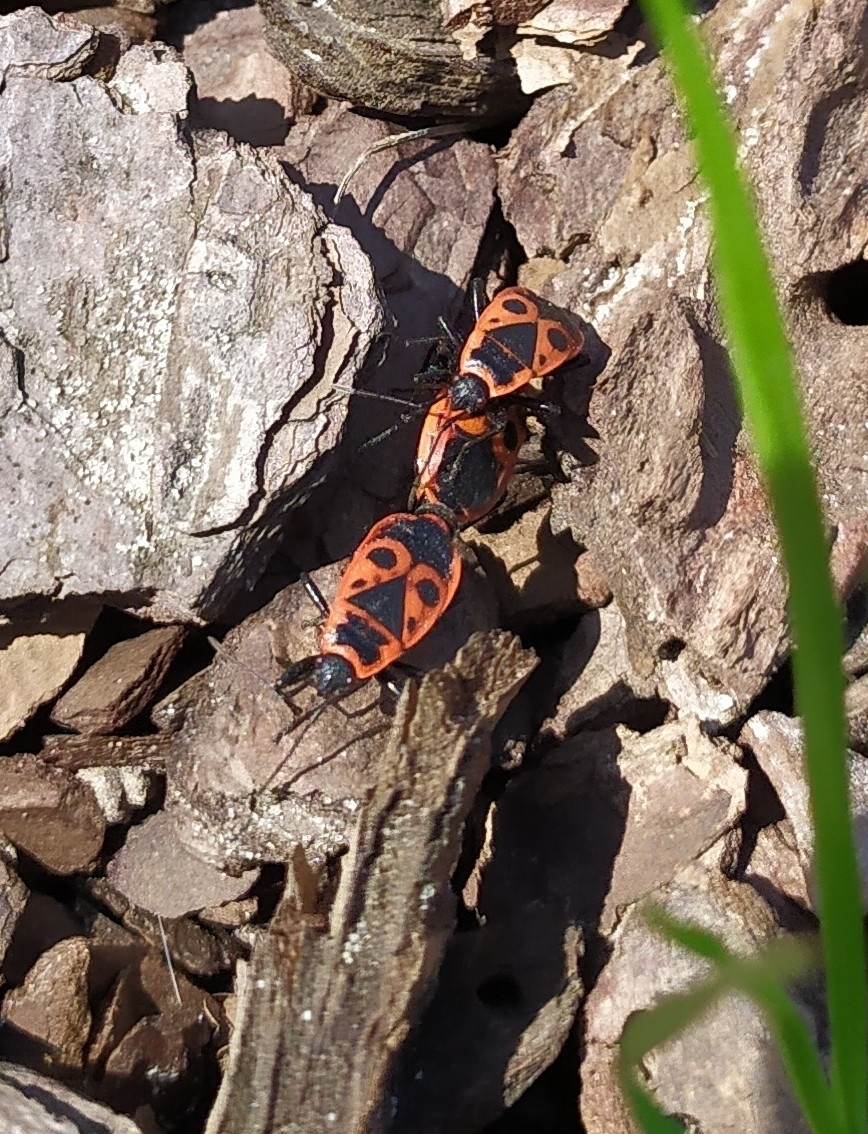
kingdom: Animalia
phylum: Arthropoda
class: Insecta
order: Hemiptera
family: Pyrrhocoridae
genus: Pyrrhocoris
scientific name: Pyrrhocoris apterus
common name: Firebug
